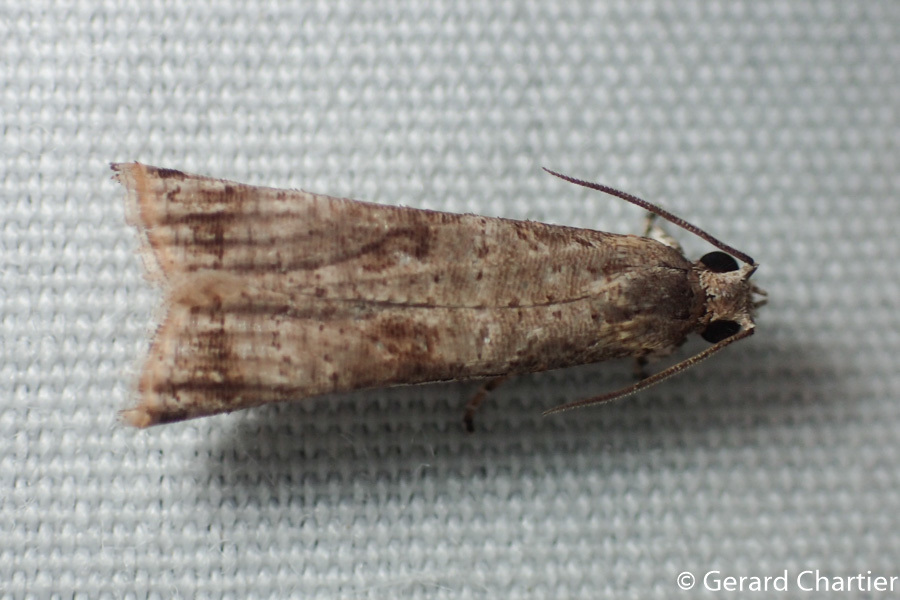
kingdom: Animalia
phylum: Arthropoda
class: Insecta
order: Lepidoptera
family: Tortricidae
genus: Phricanthes
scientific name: Phricanthes flexilineana
